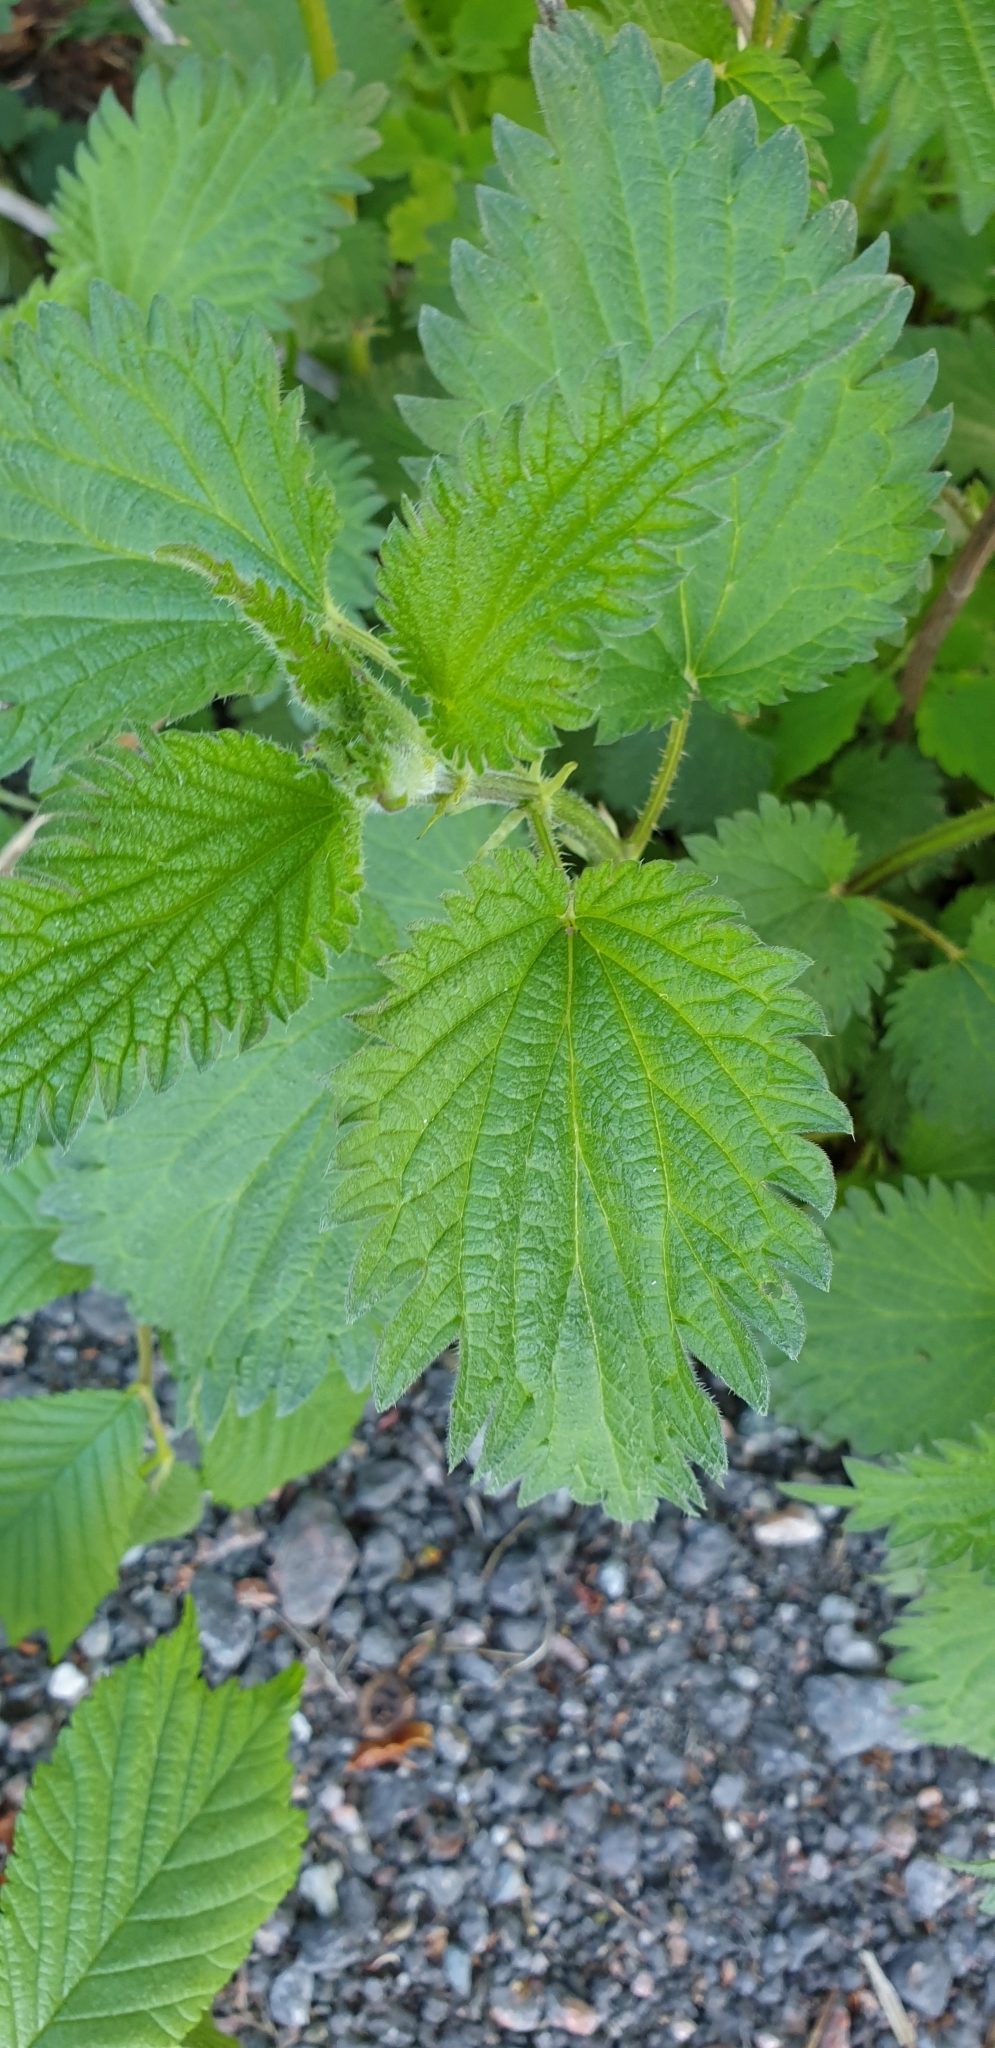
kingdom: Plantae
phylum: Tracheophyta
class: Magnoliopsida
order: Rosales
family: Urticaceae
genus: Urtica
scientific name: Urtica dioica
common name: Common nettle
